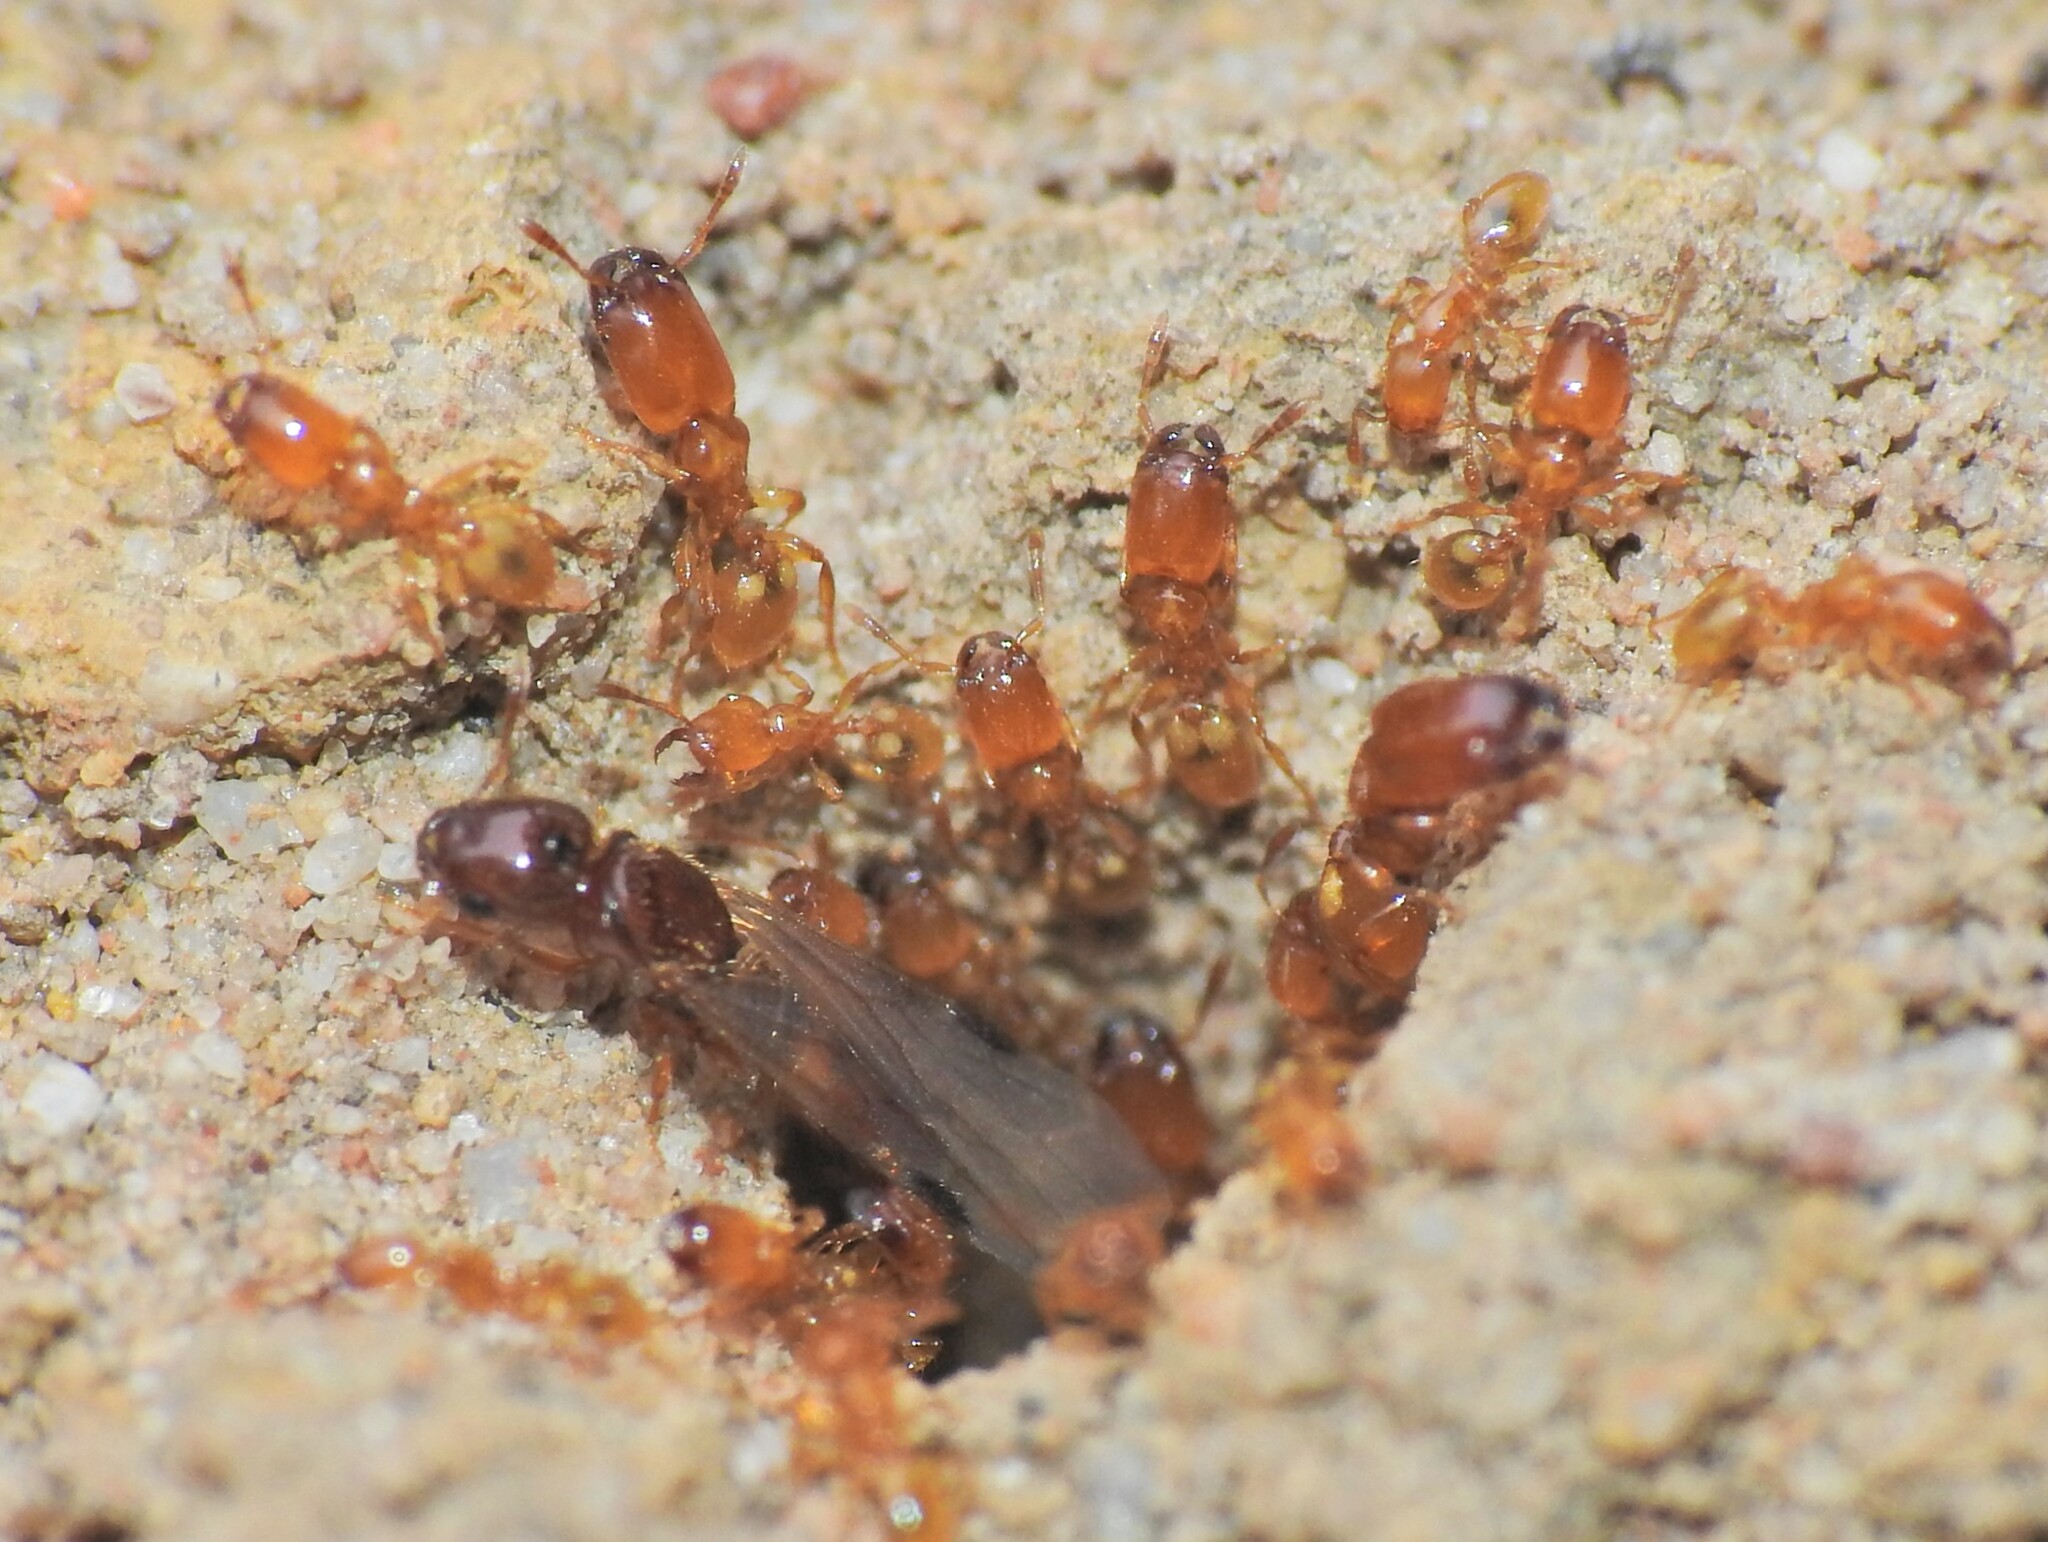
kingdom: Animalia
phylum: Arthropoda
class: Insecta
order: Hymenoptera
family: Formicidae
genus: Pheidole
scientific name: Pheidole
